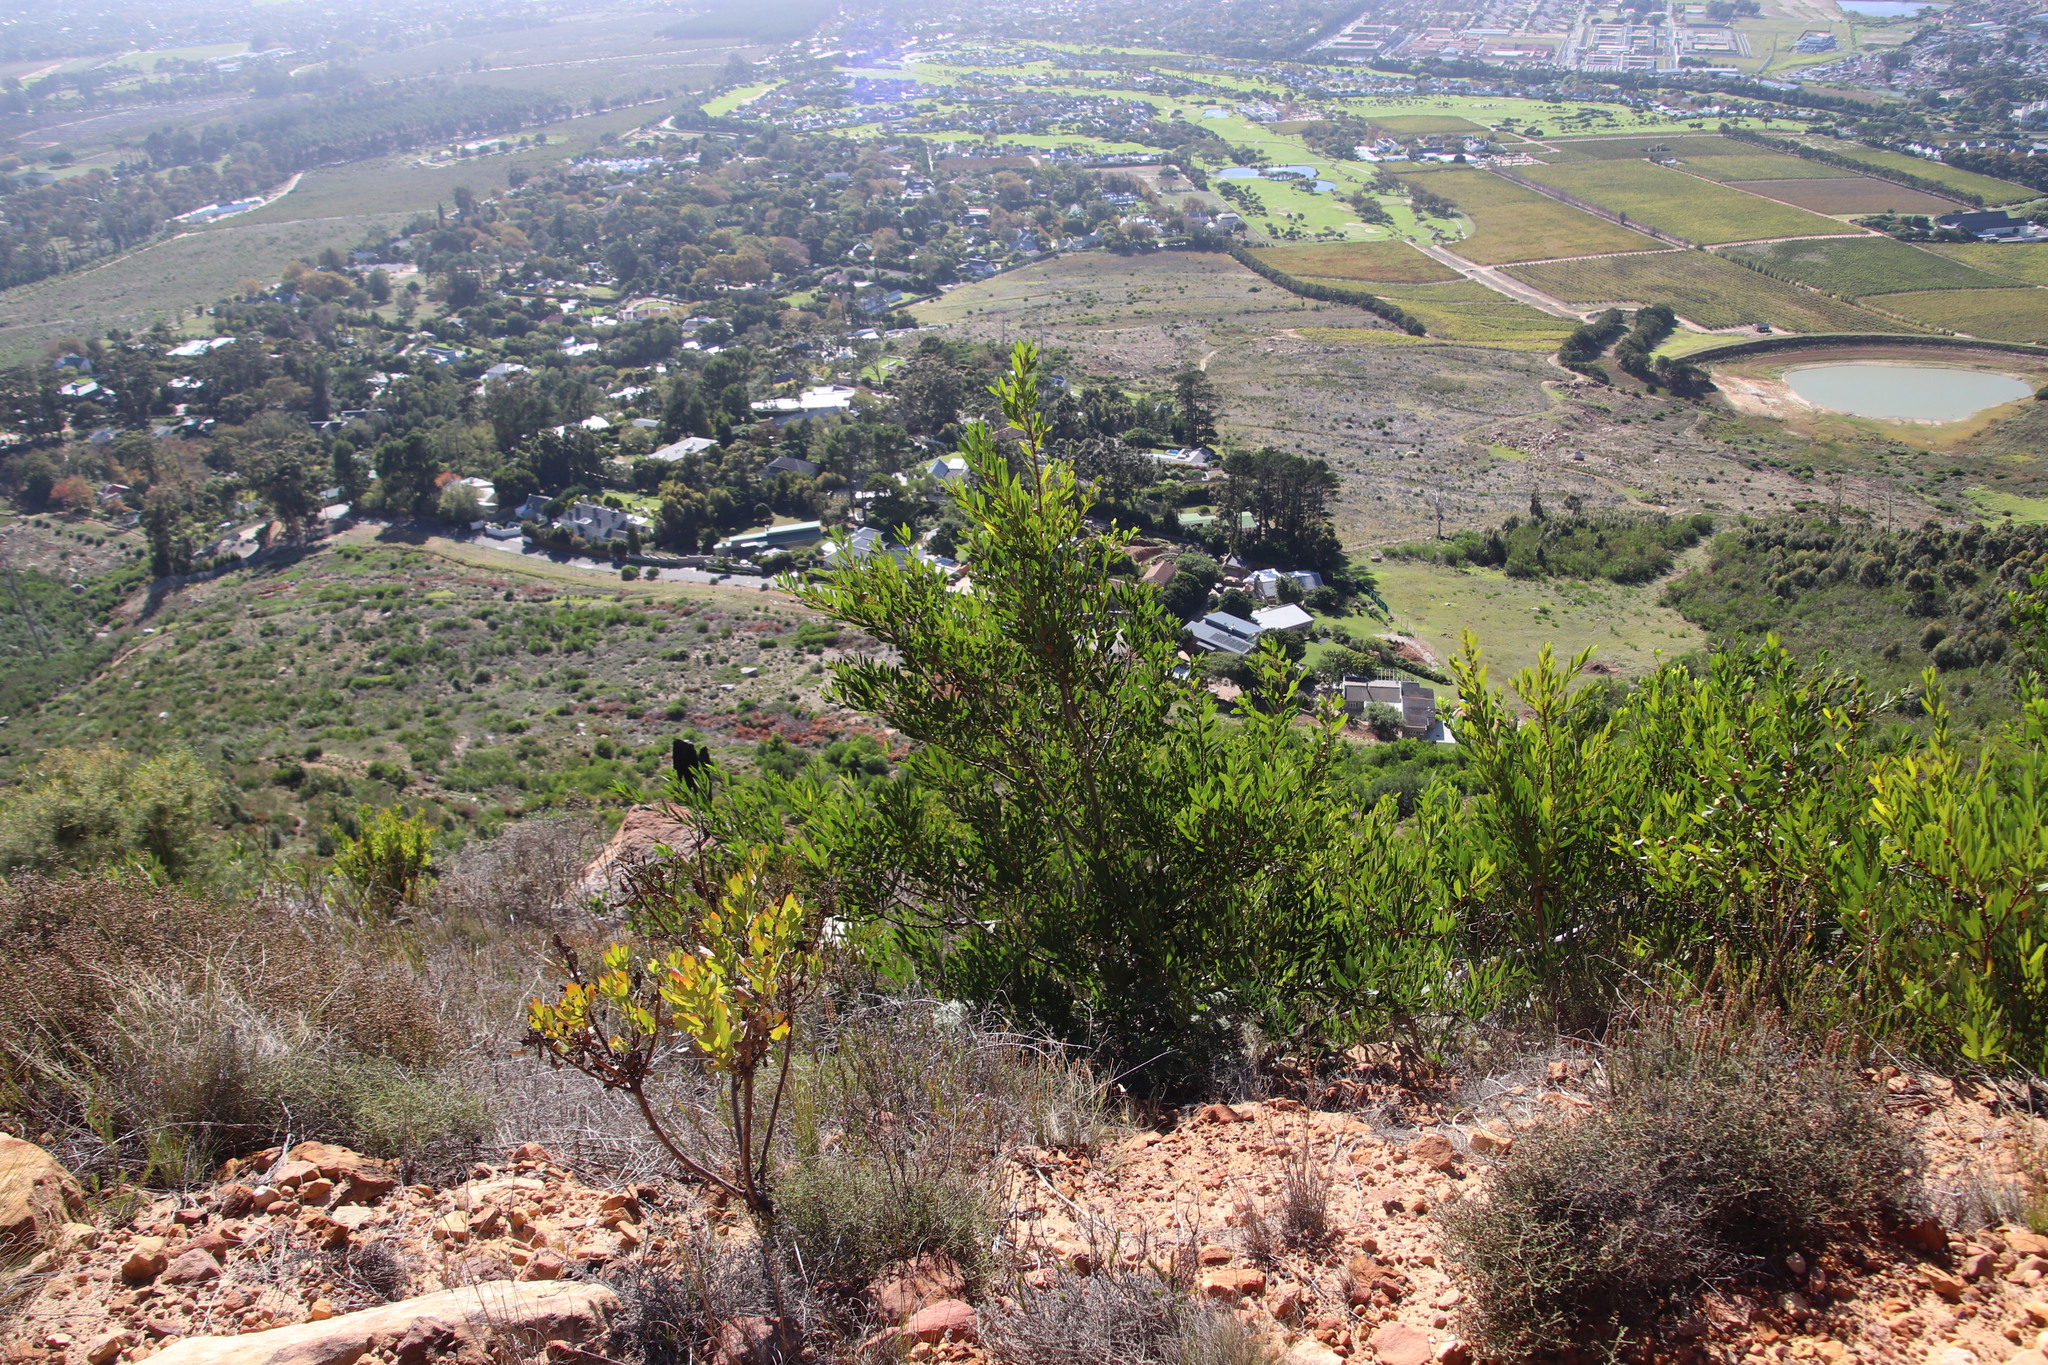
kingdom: Plantae
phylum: Tracheophyta
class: Magnoliopsida
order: Fabales
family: Fabaceae
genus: Acacia
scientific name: Acacia longifolia
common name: Sydney golden wattle
